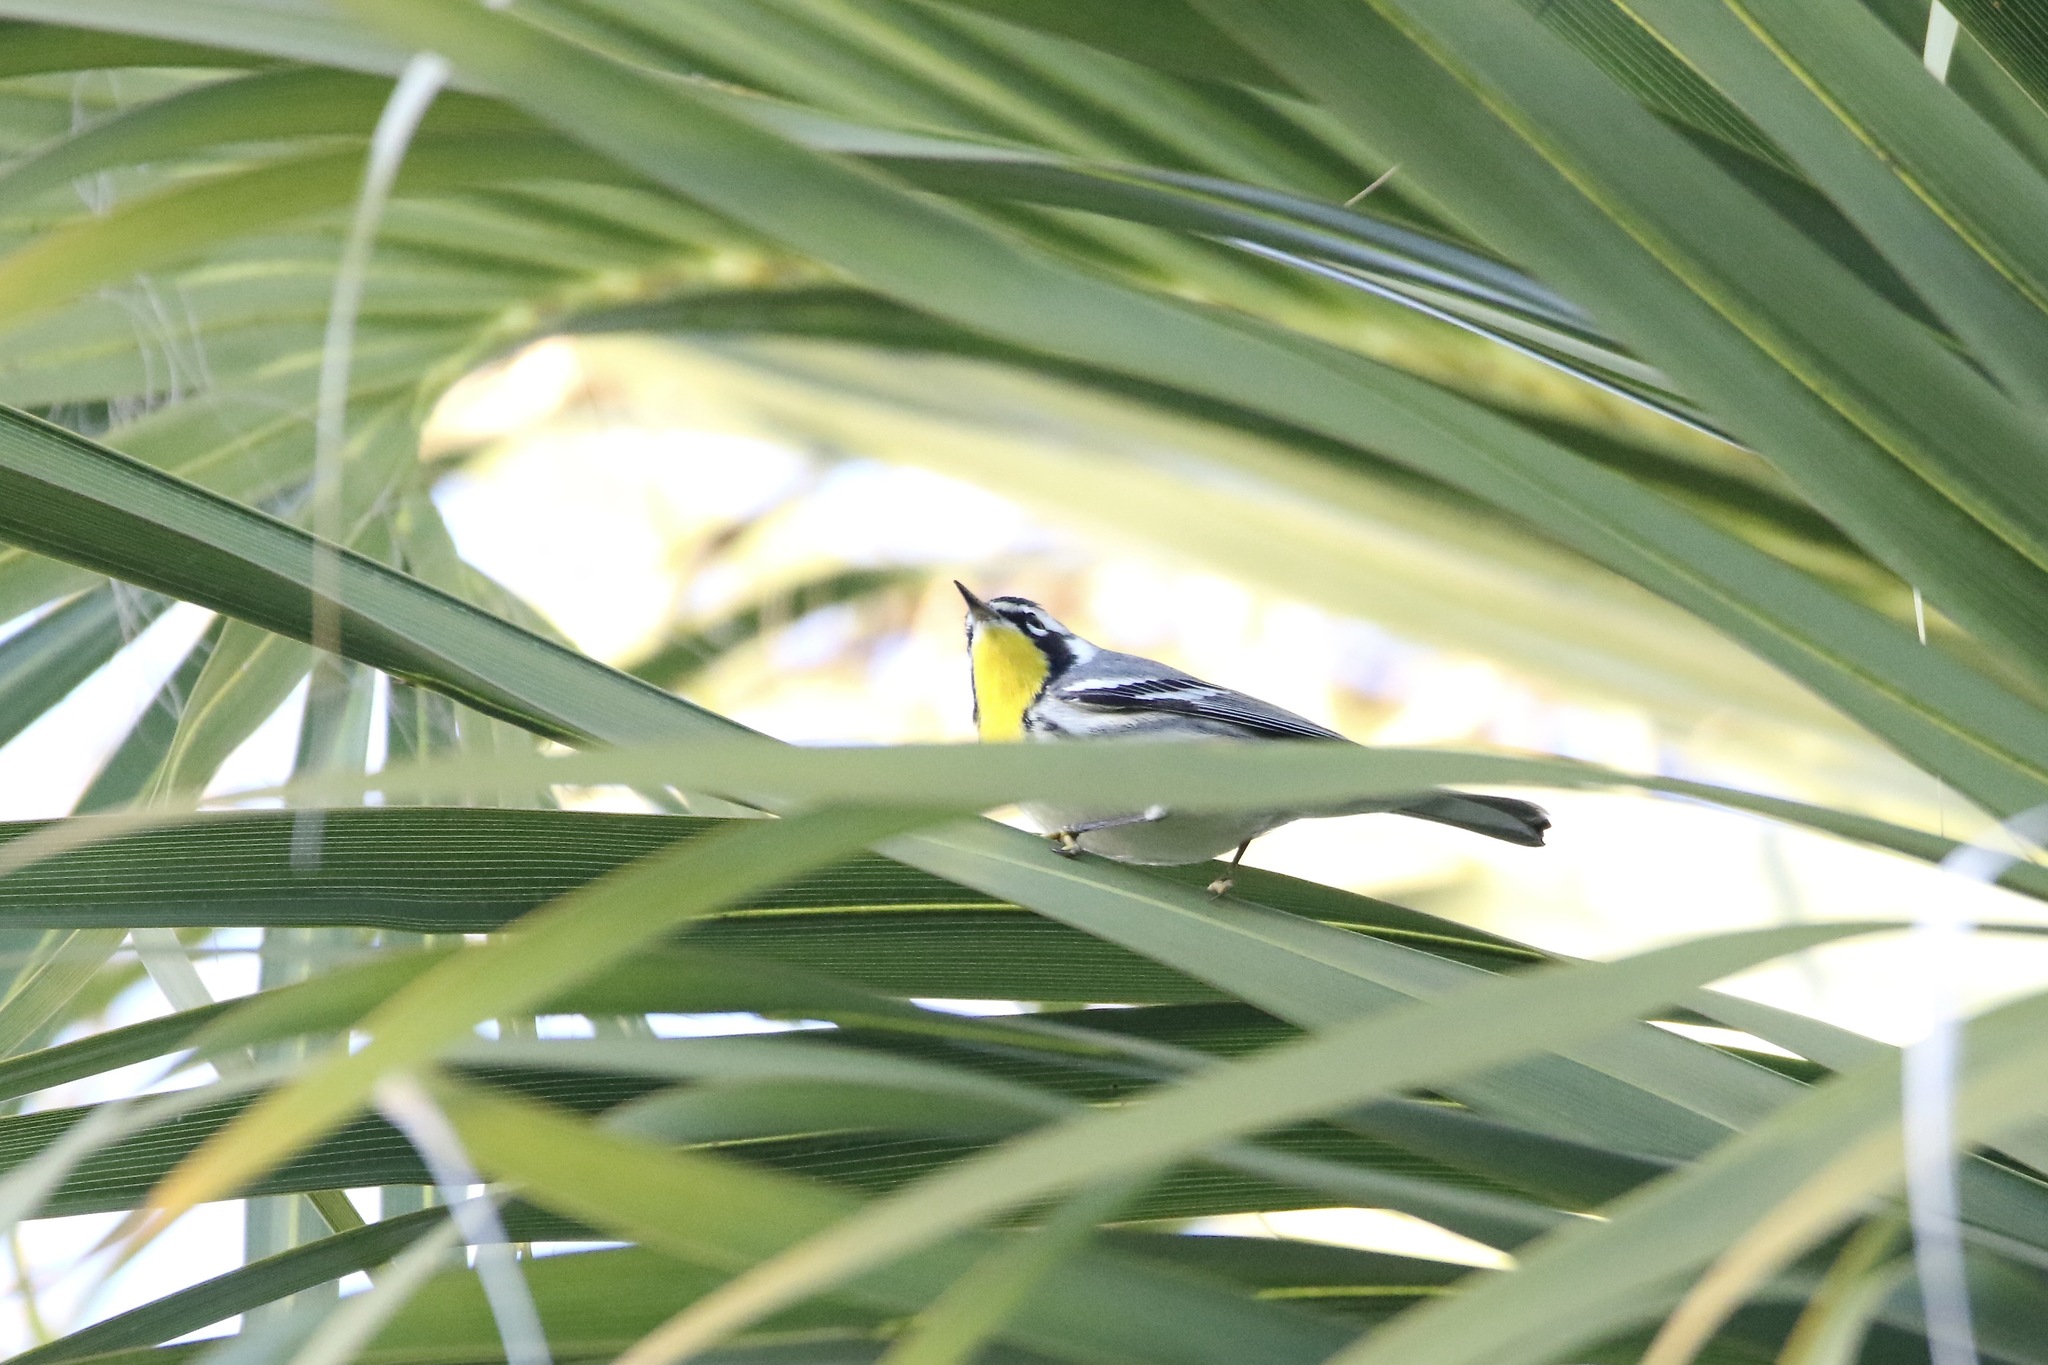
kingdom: Animalia
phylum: Chordata
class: Aves
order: Passeriformes
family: Parulidae
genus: Setophaga
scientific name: Setophaga dominica
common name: Yellow-throated warbler
